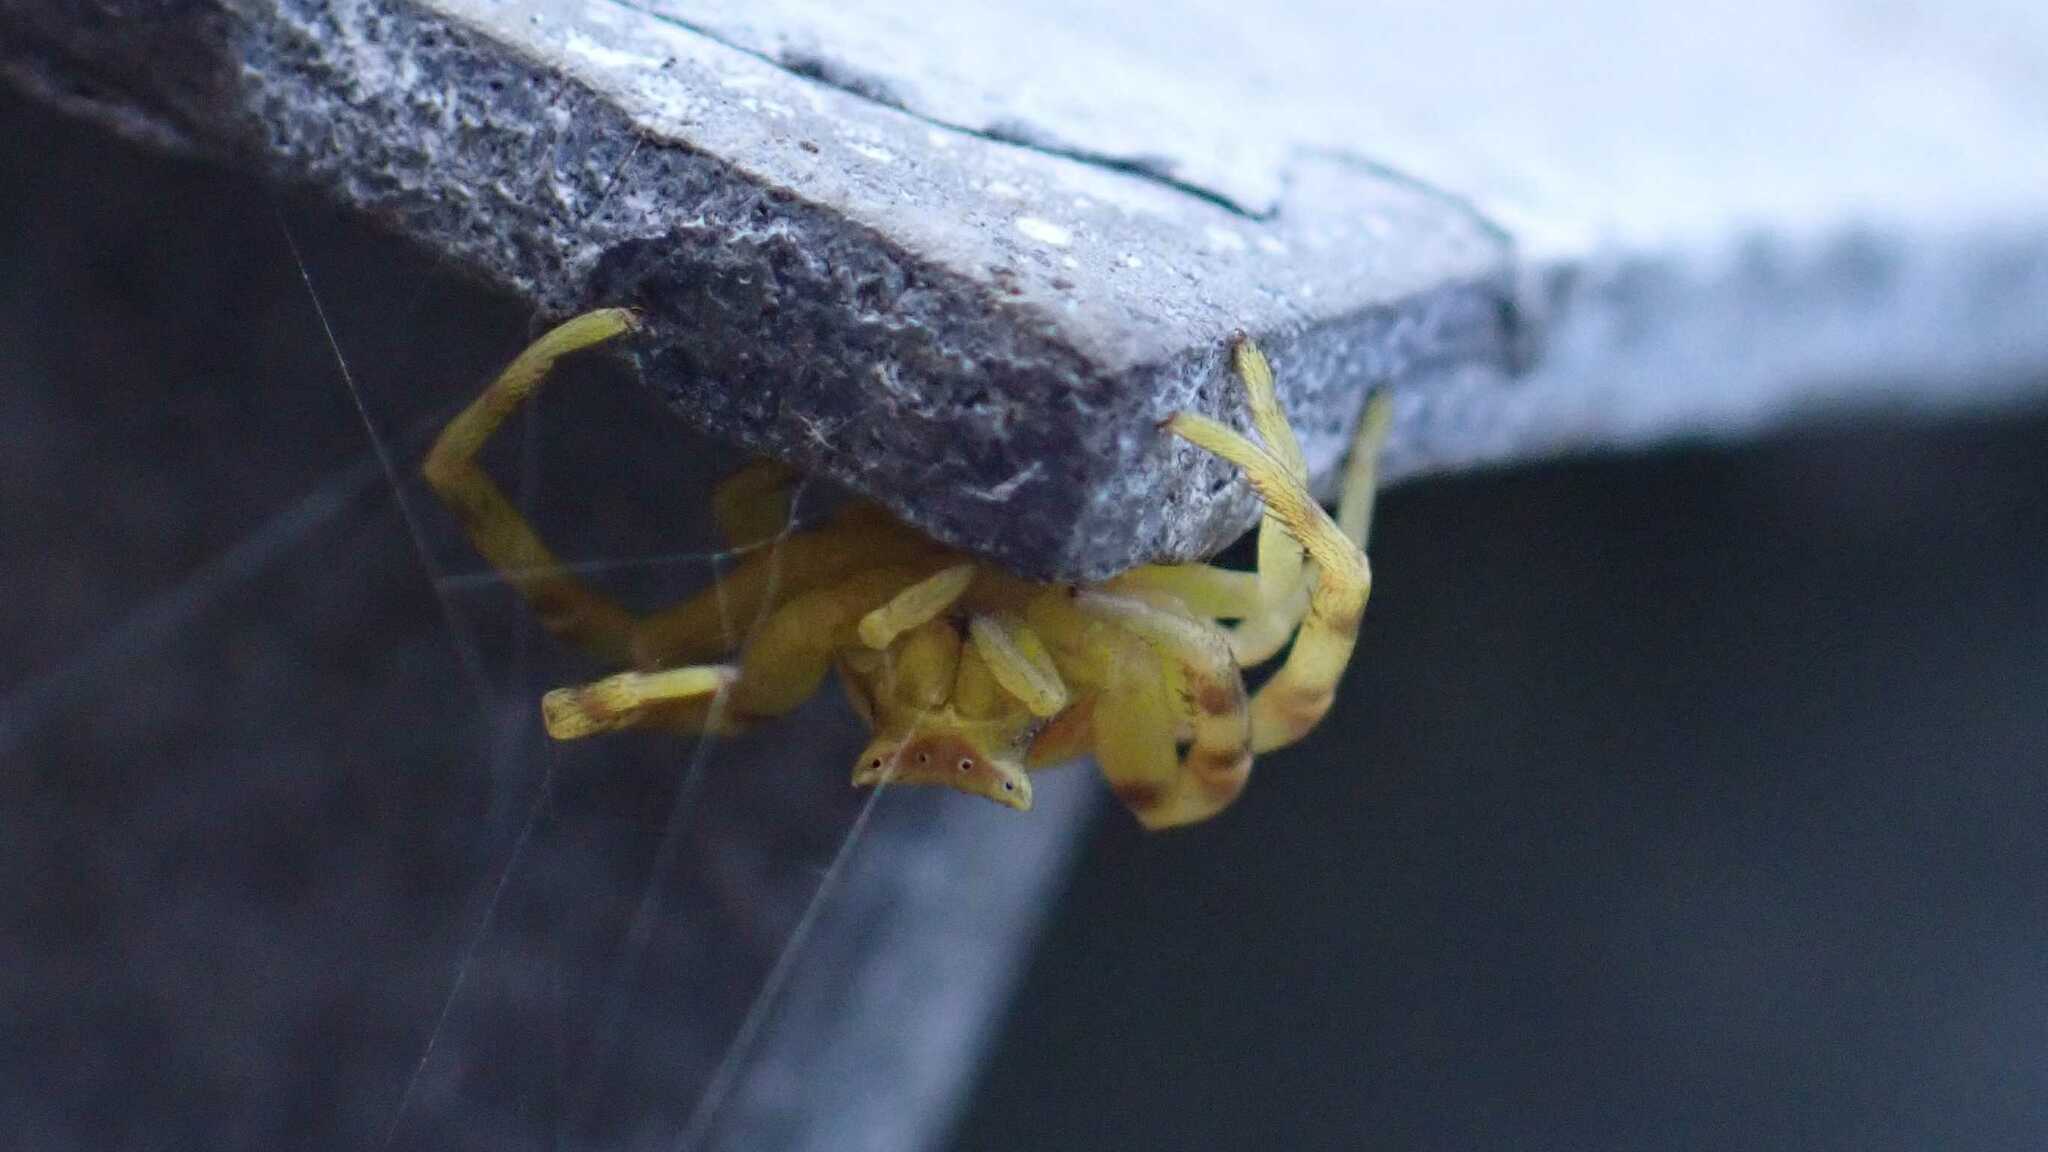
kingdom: Animalia
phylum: Arthropoda
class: Arachnida
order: Araneae
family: Thomisidae
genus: Thomisus
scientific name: Thomisus onustus
